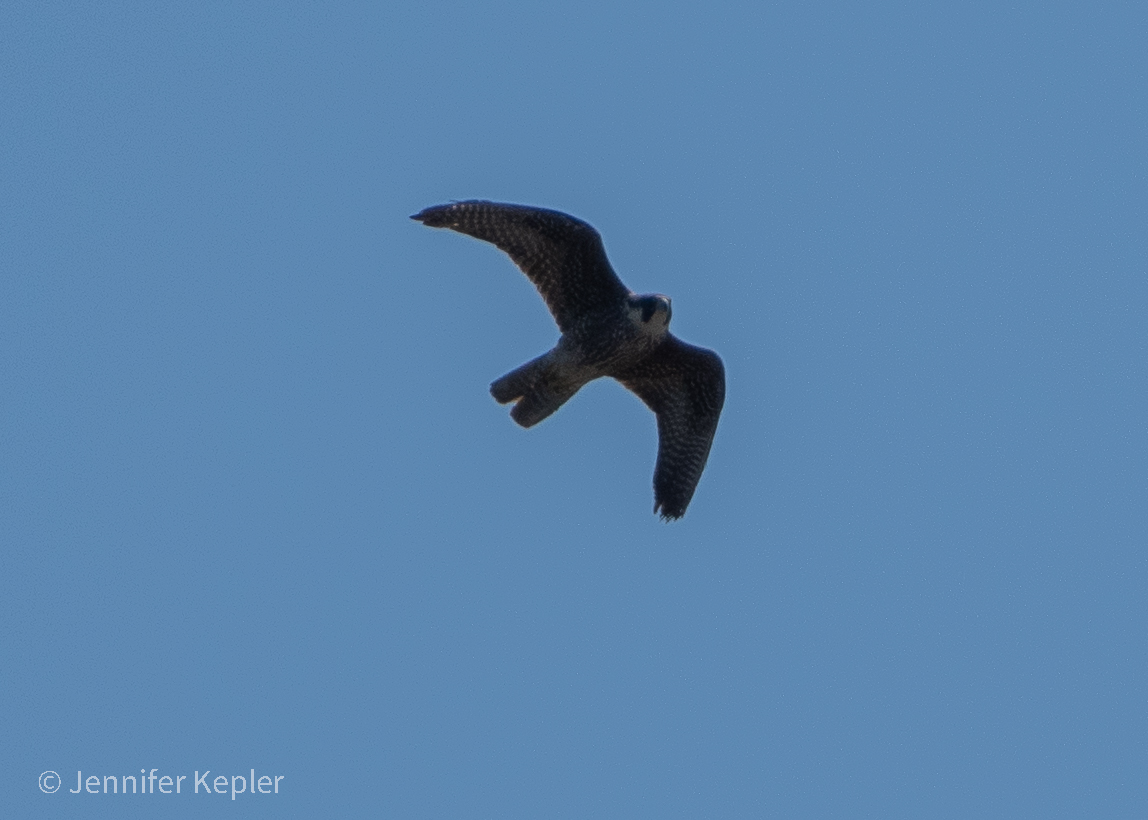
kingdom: Animalia
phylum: Chordata
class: Aves
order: Falconiformes
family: Falconidae
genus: Falco
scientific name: Falco peregrinus
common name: Peregrine falcon
